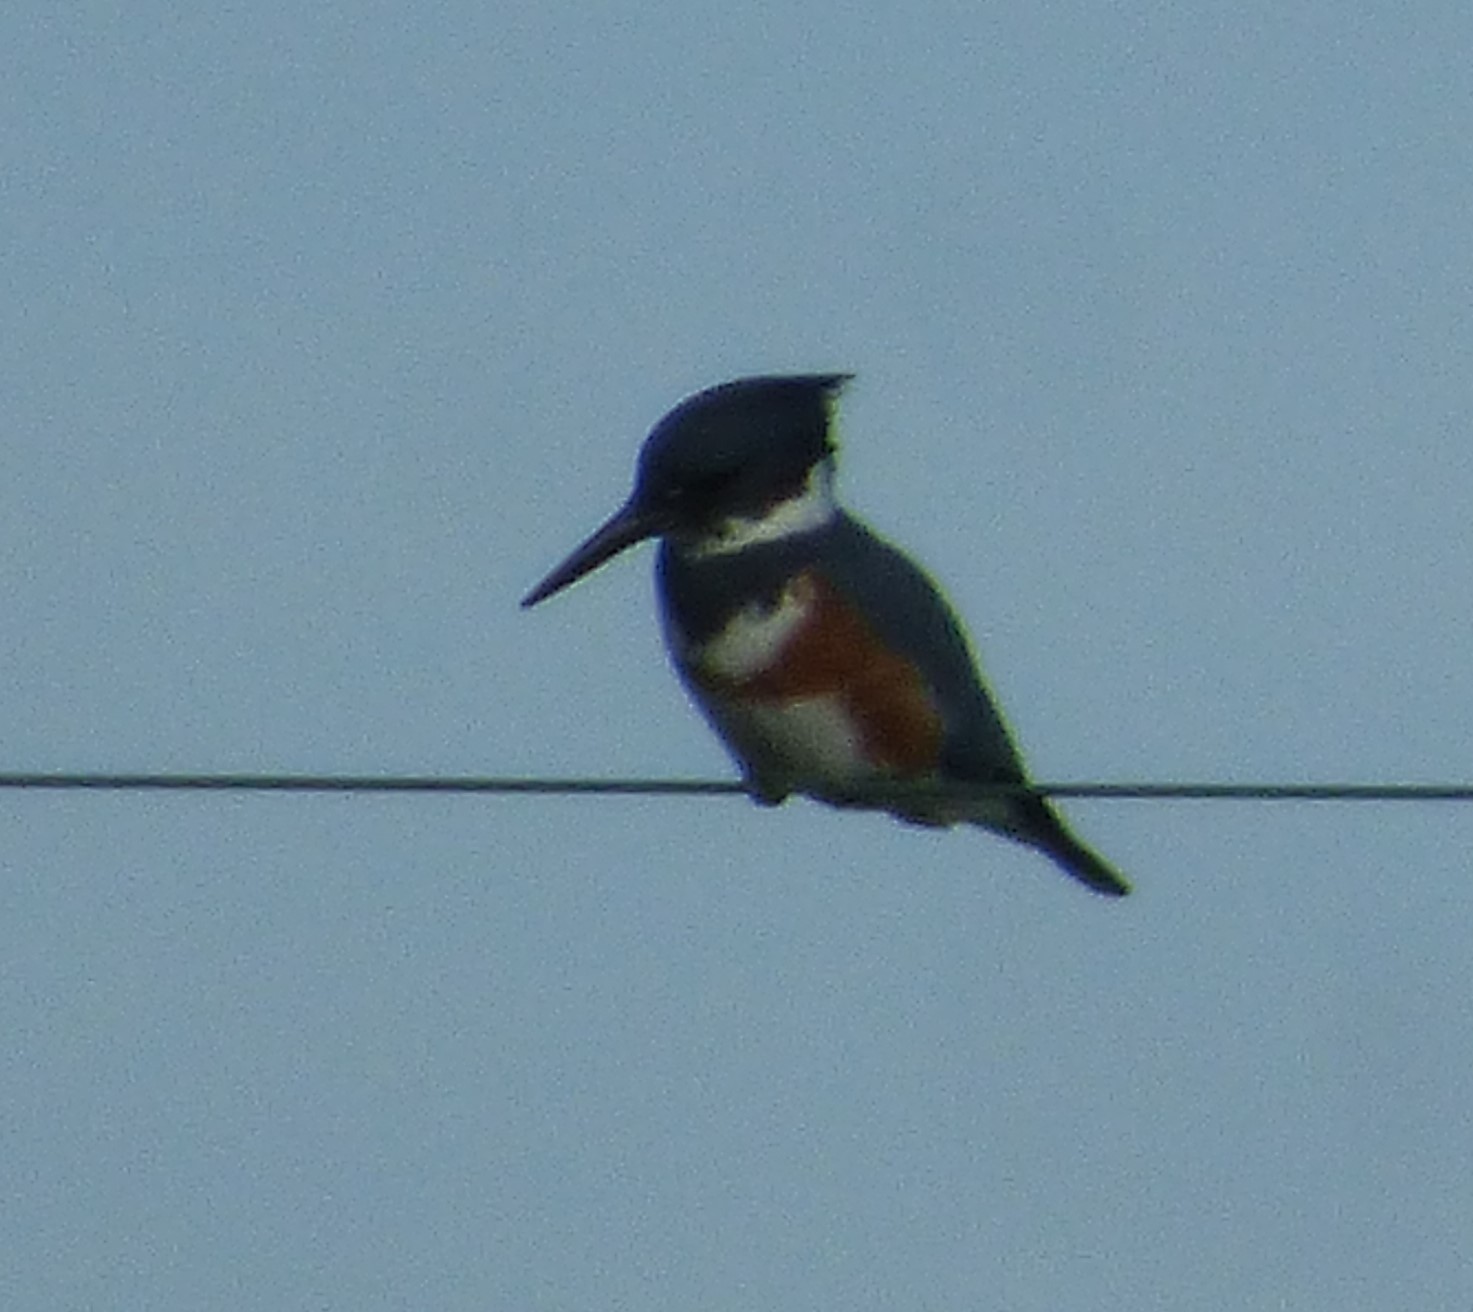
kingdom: Animalia
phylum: Chordata
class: Aves
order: Coraciiformes
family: Alcedinidae
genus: Megaceryle
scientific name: Megaceryle alcyon
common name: Belted kingfisher
